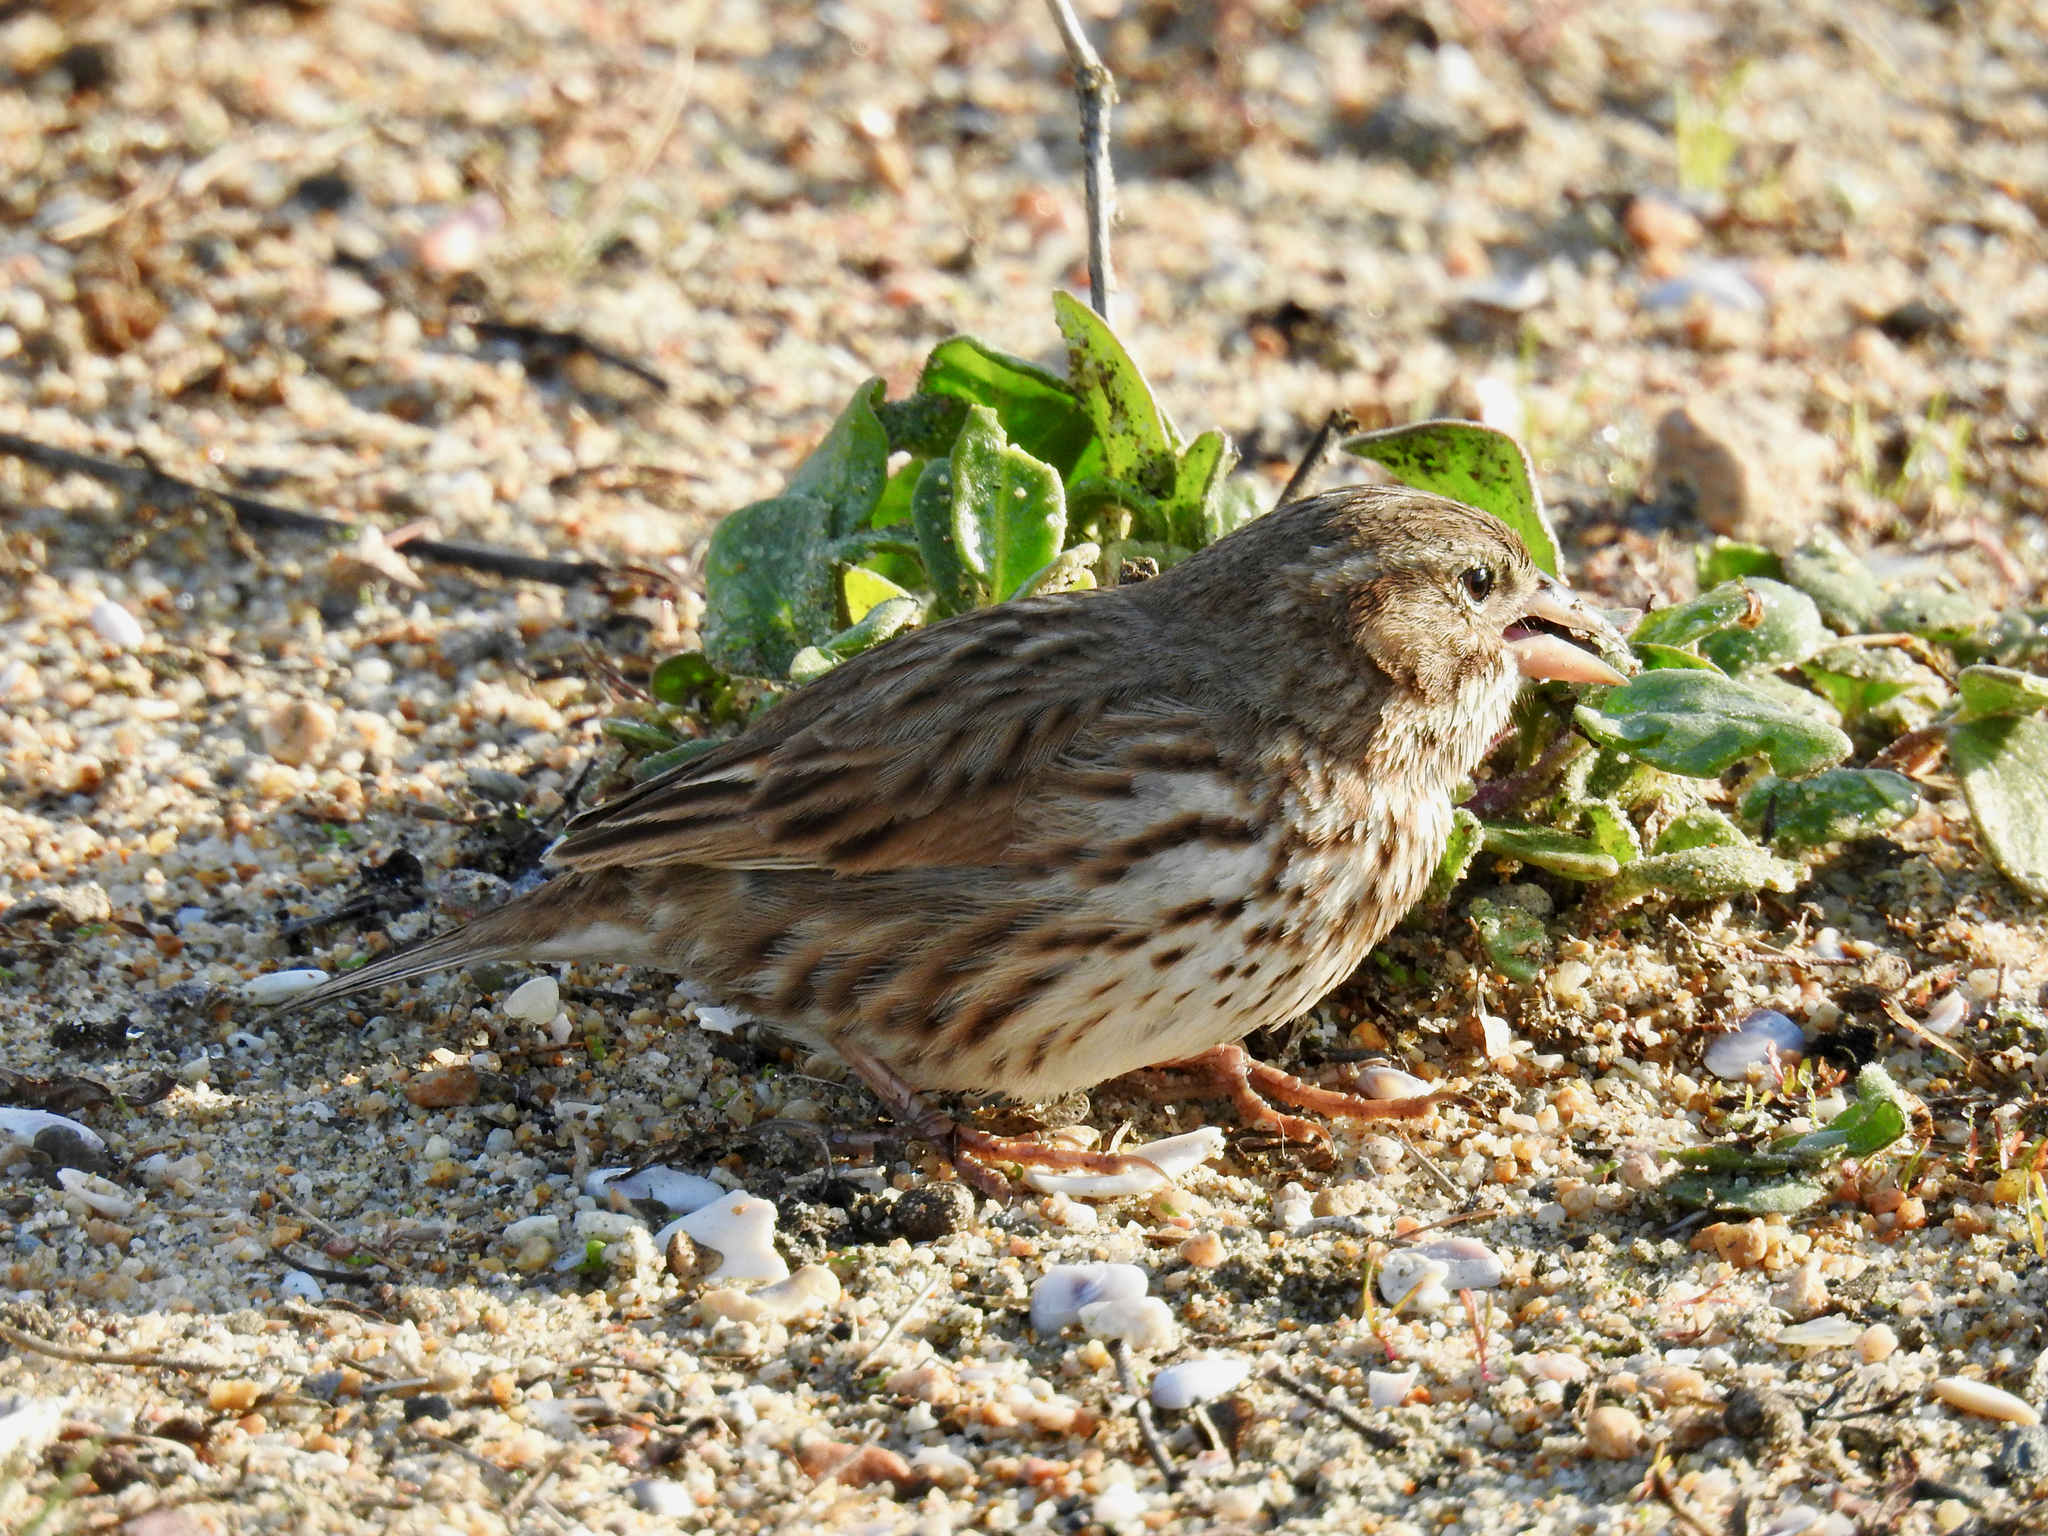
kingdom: Animalia
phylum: Chordata
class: Aves
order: Passeriformes
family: Passerellidae
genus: Passerculus
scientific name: Passerculus sandwichensis
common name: Savannah sparrow
